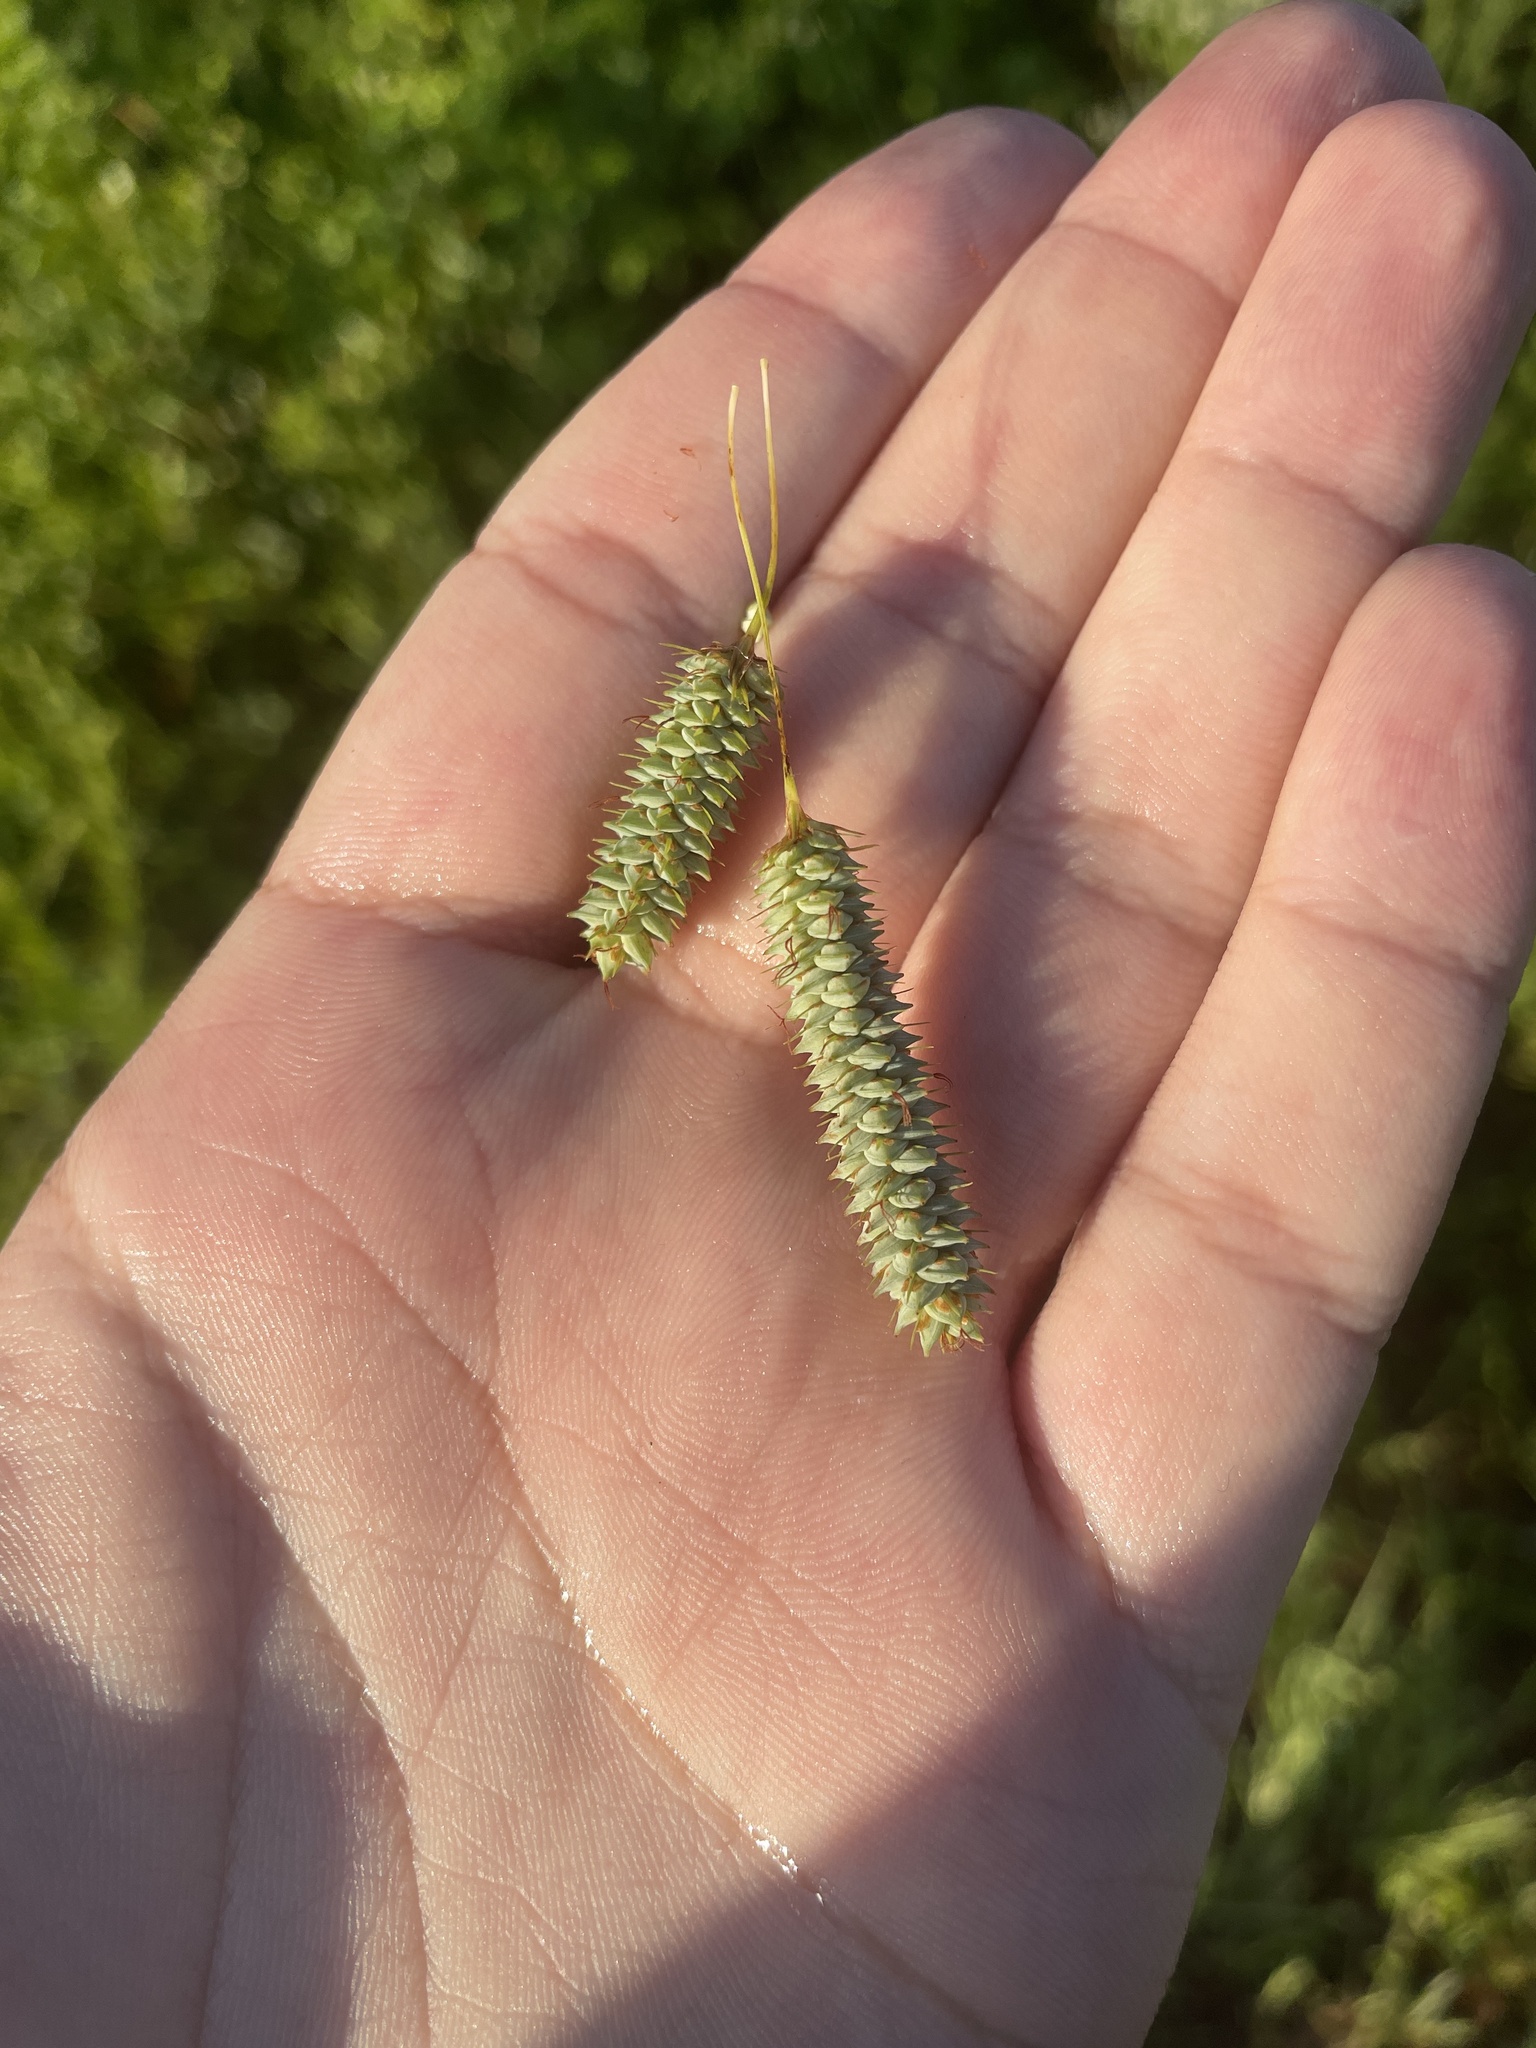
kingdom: Plantae
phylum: Tracheophyta
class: Liliopsida
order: Poales
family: Cyperaceae
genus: Carex
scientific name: Carex glaucescens
